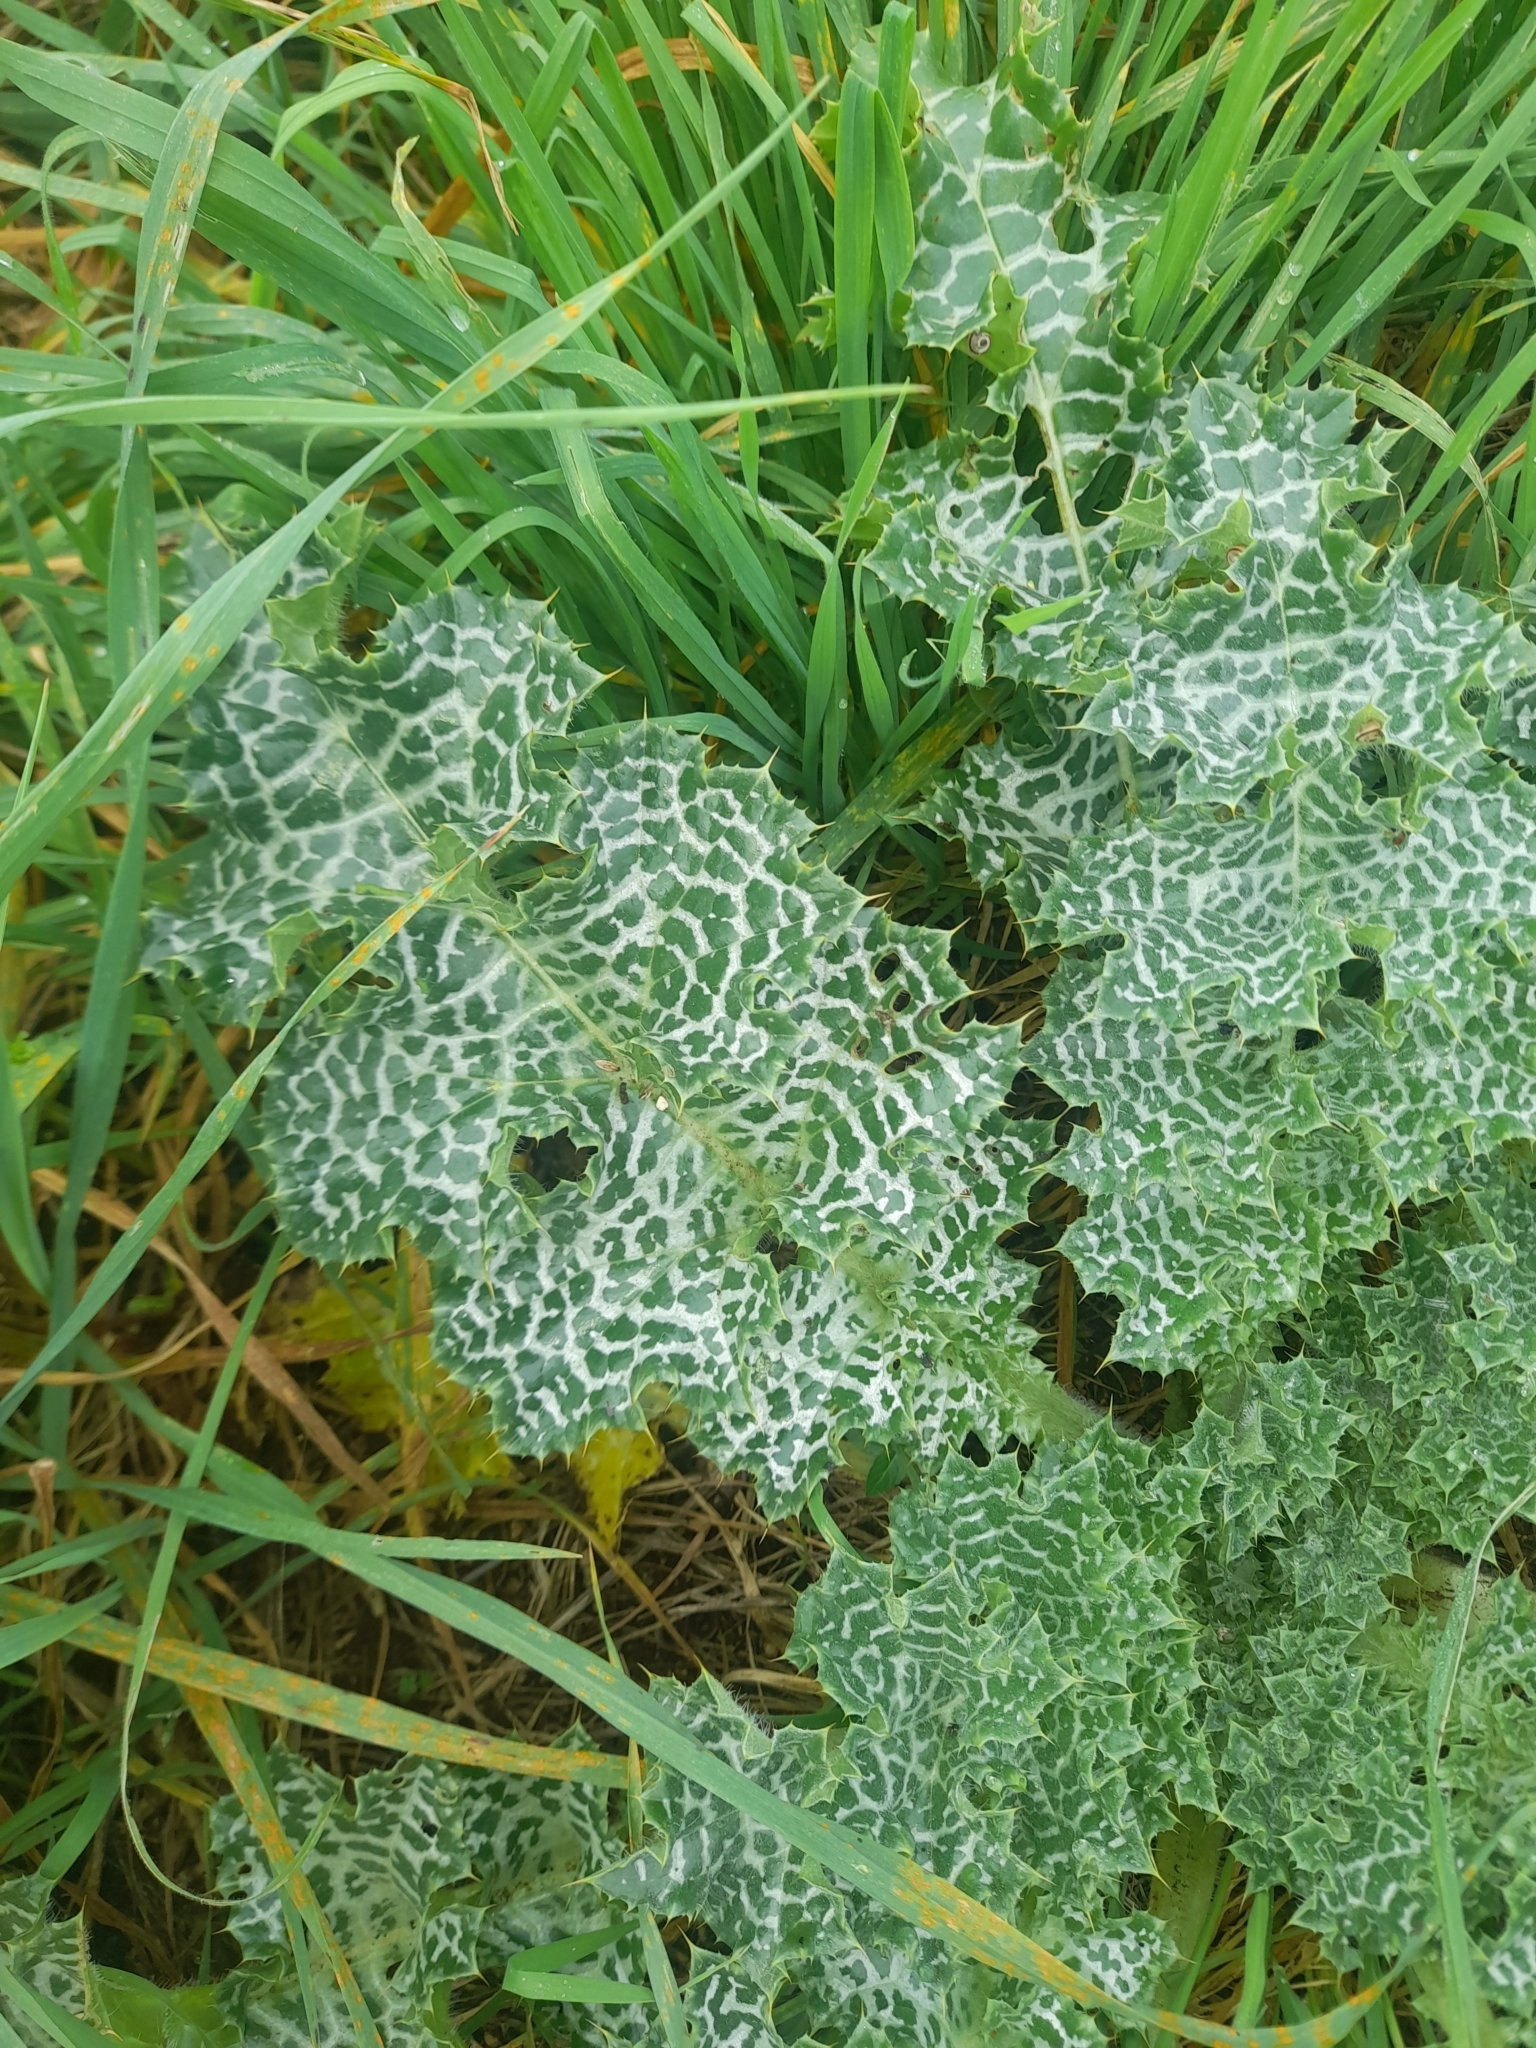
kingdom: Plantae
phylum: Tracheophyta
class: Magnoliopsida
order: Asterales
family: Asteraceae
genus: Silybum
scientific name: Silybum marianum
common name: Milk thistle
